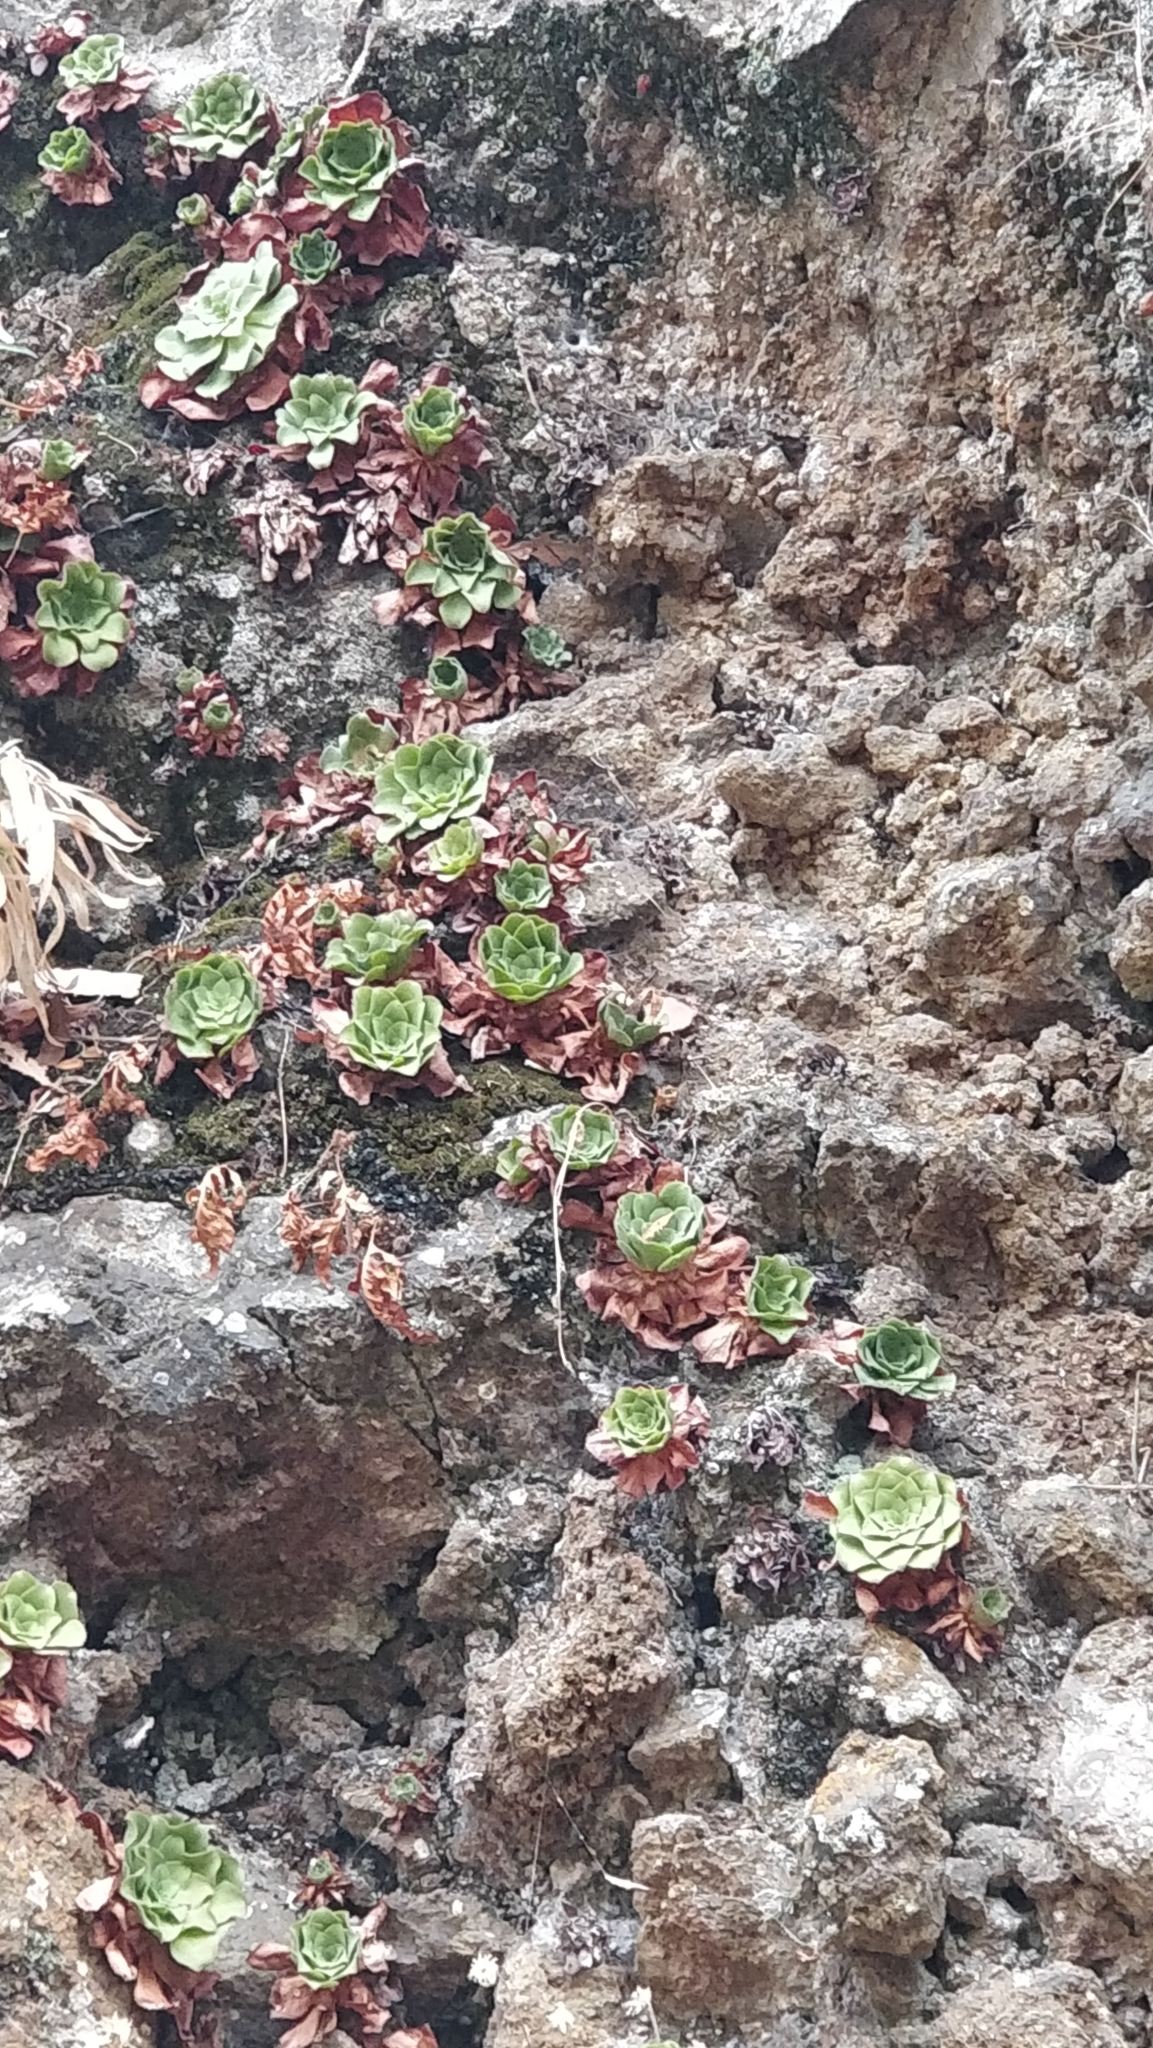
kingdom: Plantae
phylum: Tracheophyta
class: Magnoliopsida
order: Saxifragales
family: Crassulaceae
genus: Aeonium
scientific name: Aeonium glandulosum
